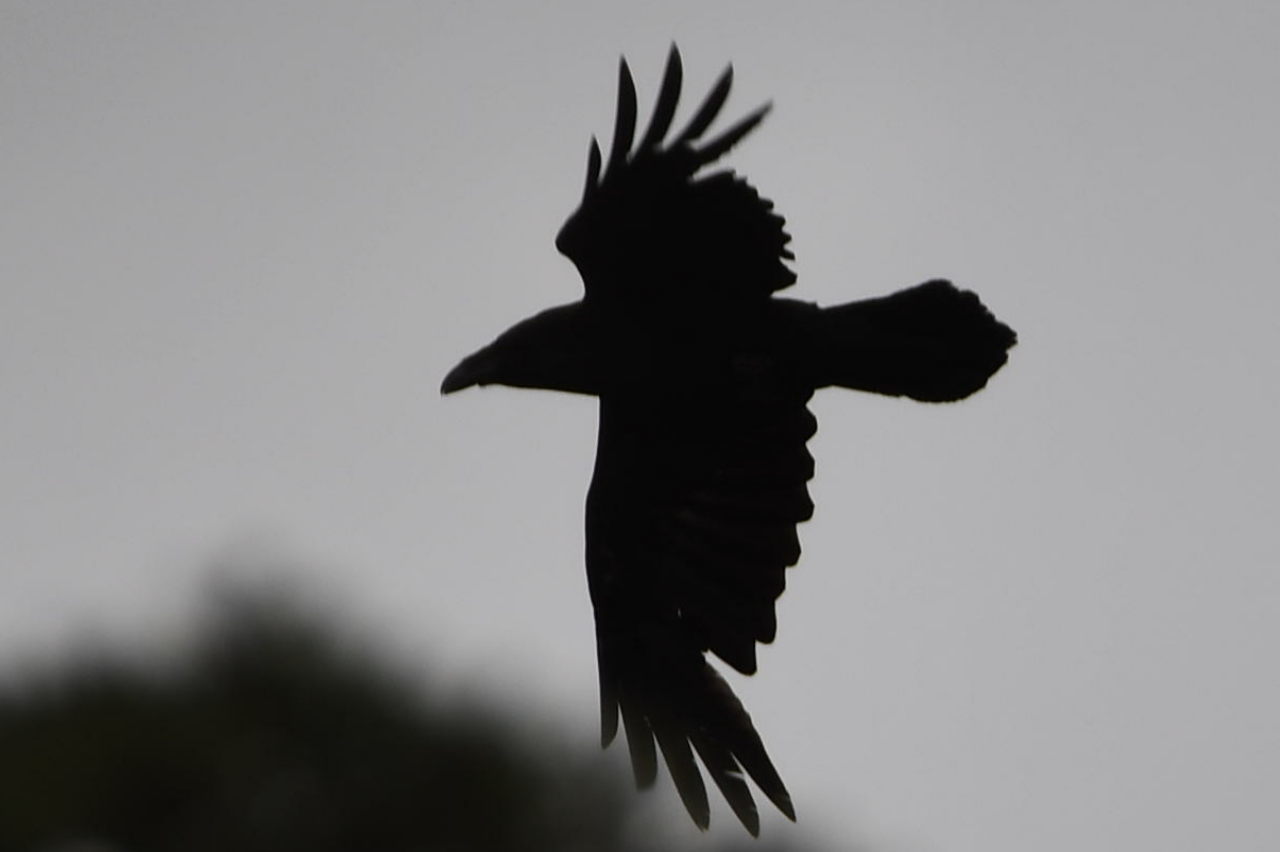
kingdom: Animalia
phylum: Chordata
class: Aves
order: Passeriformes
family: Corvidae
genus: Corvus
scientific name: Corvus corax
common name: Common raven
